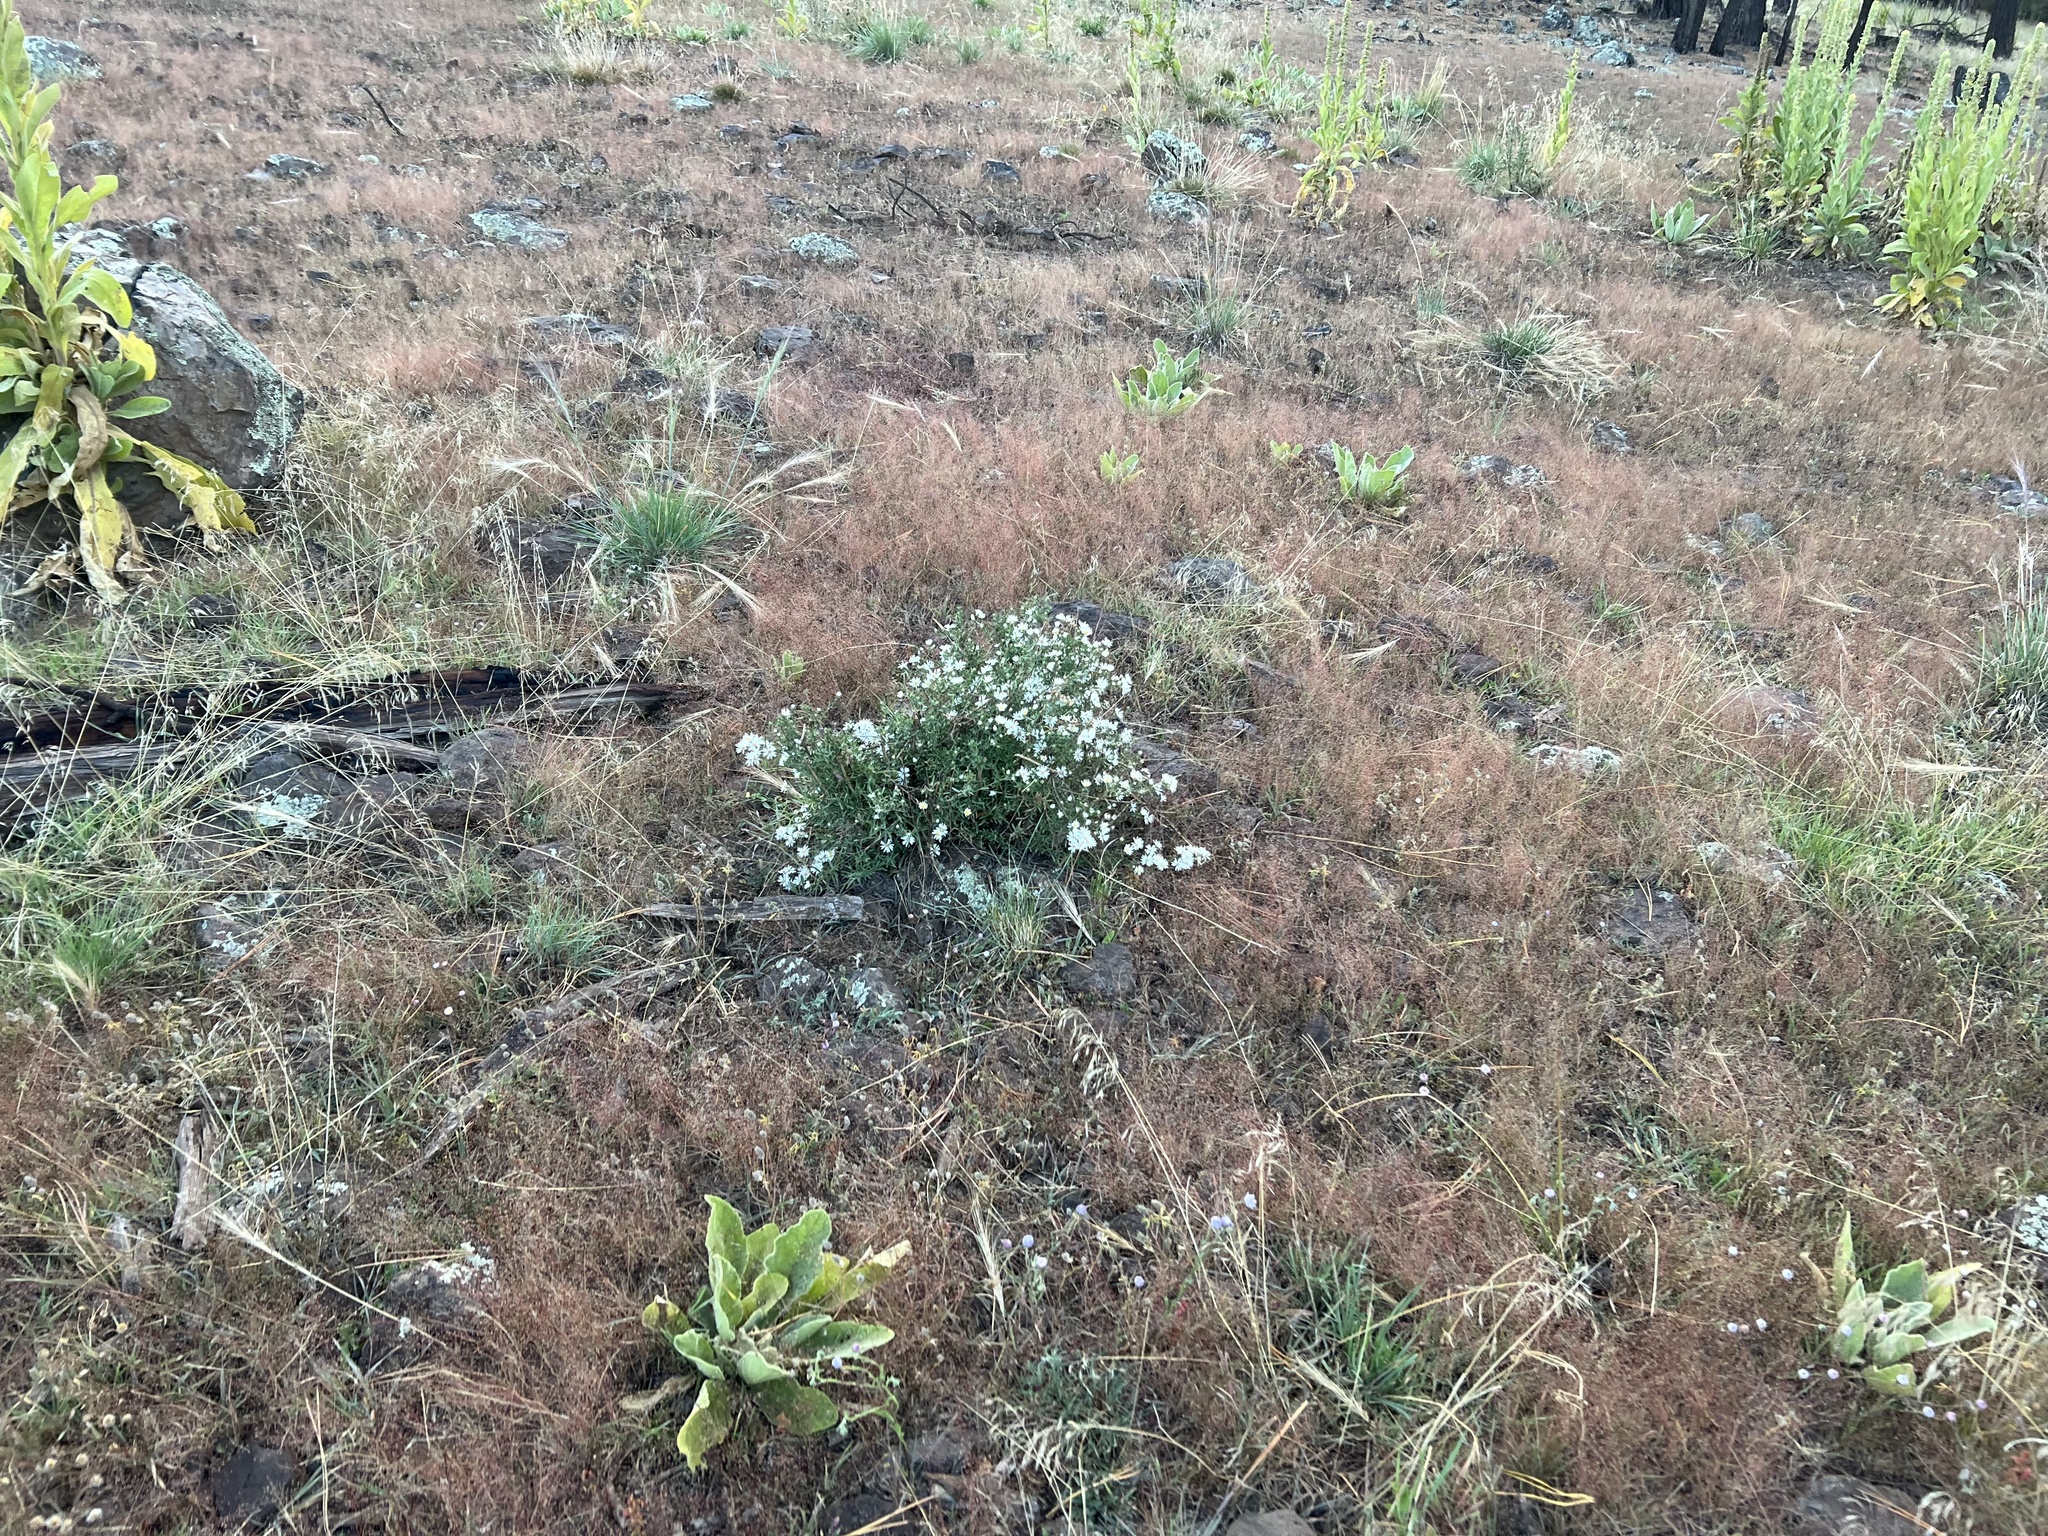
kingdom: Plantae
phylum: Tracheophyta
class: Magnoliopsida
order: Asterales
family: Asteraceae
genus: Symphyotrichum
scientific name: Symphyotrichum falcatum
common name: Creeping white prairie aster
